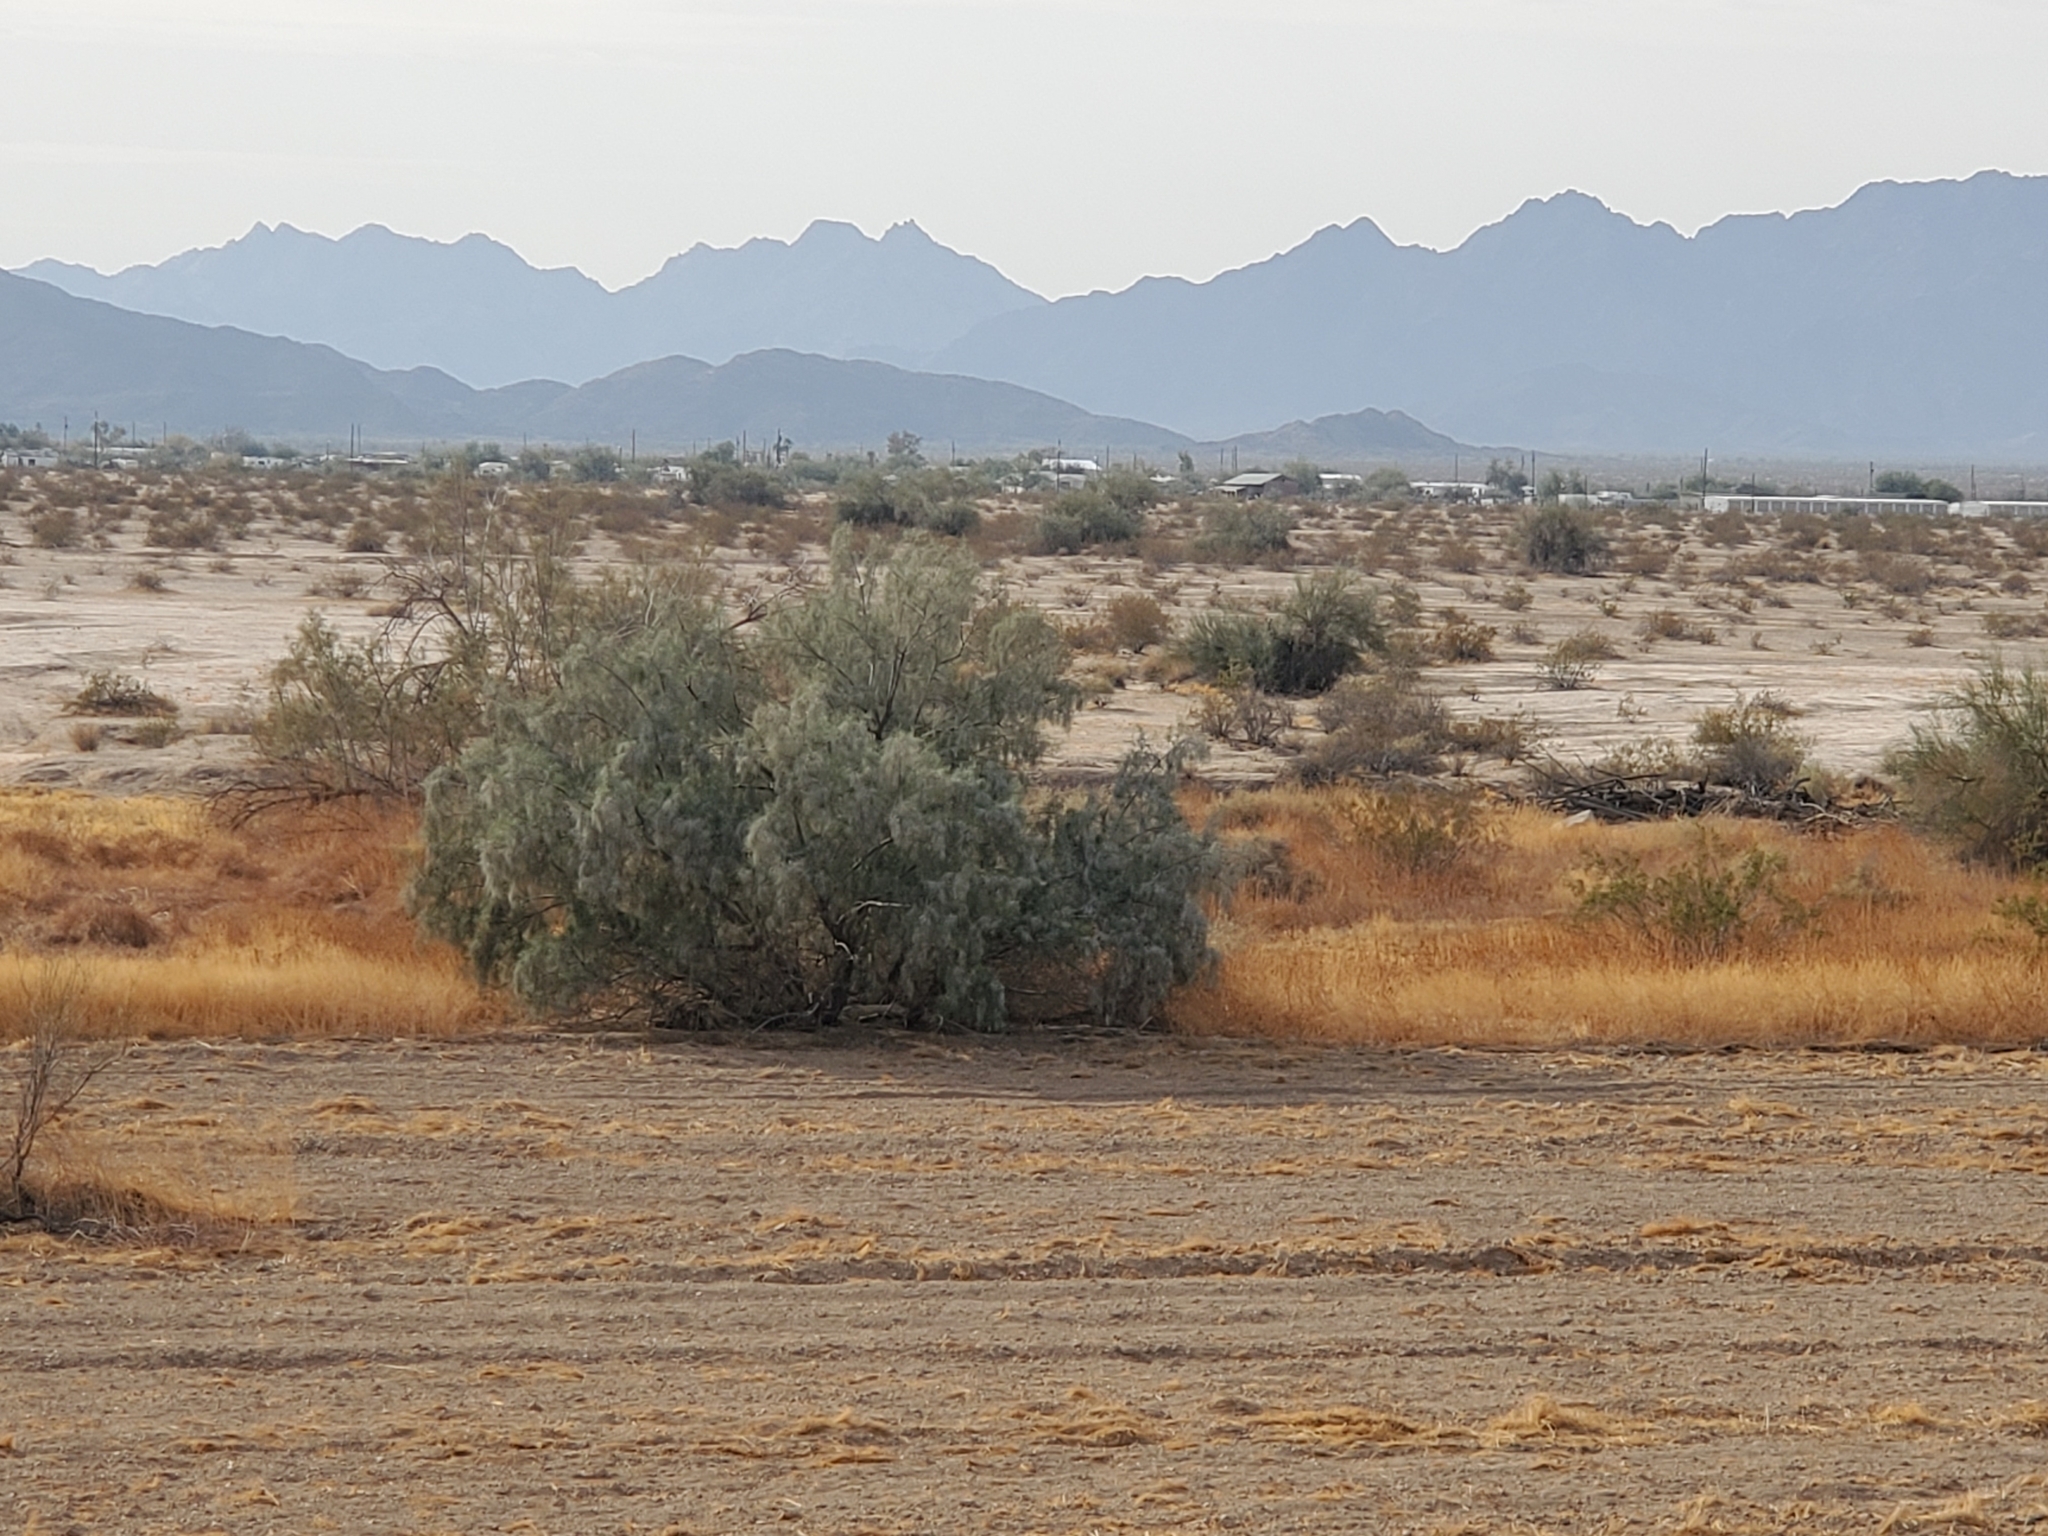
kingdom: Plantae
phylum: Tracheophyta
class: Magnoliopsida
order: Caryophyllales
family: Tamaricaceae
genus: Tamarix
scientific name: Tamarix aphylla
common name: Athel tamarisk
